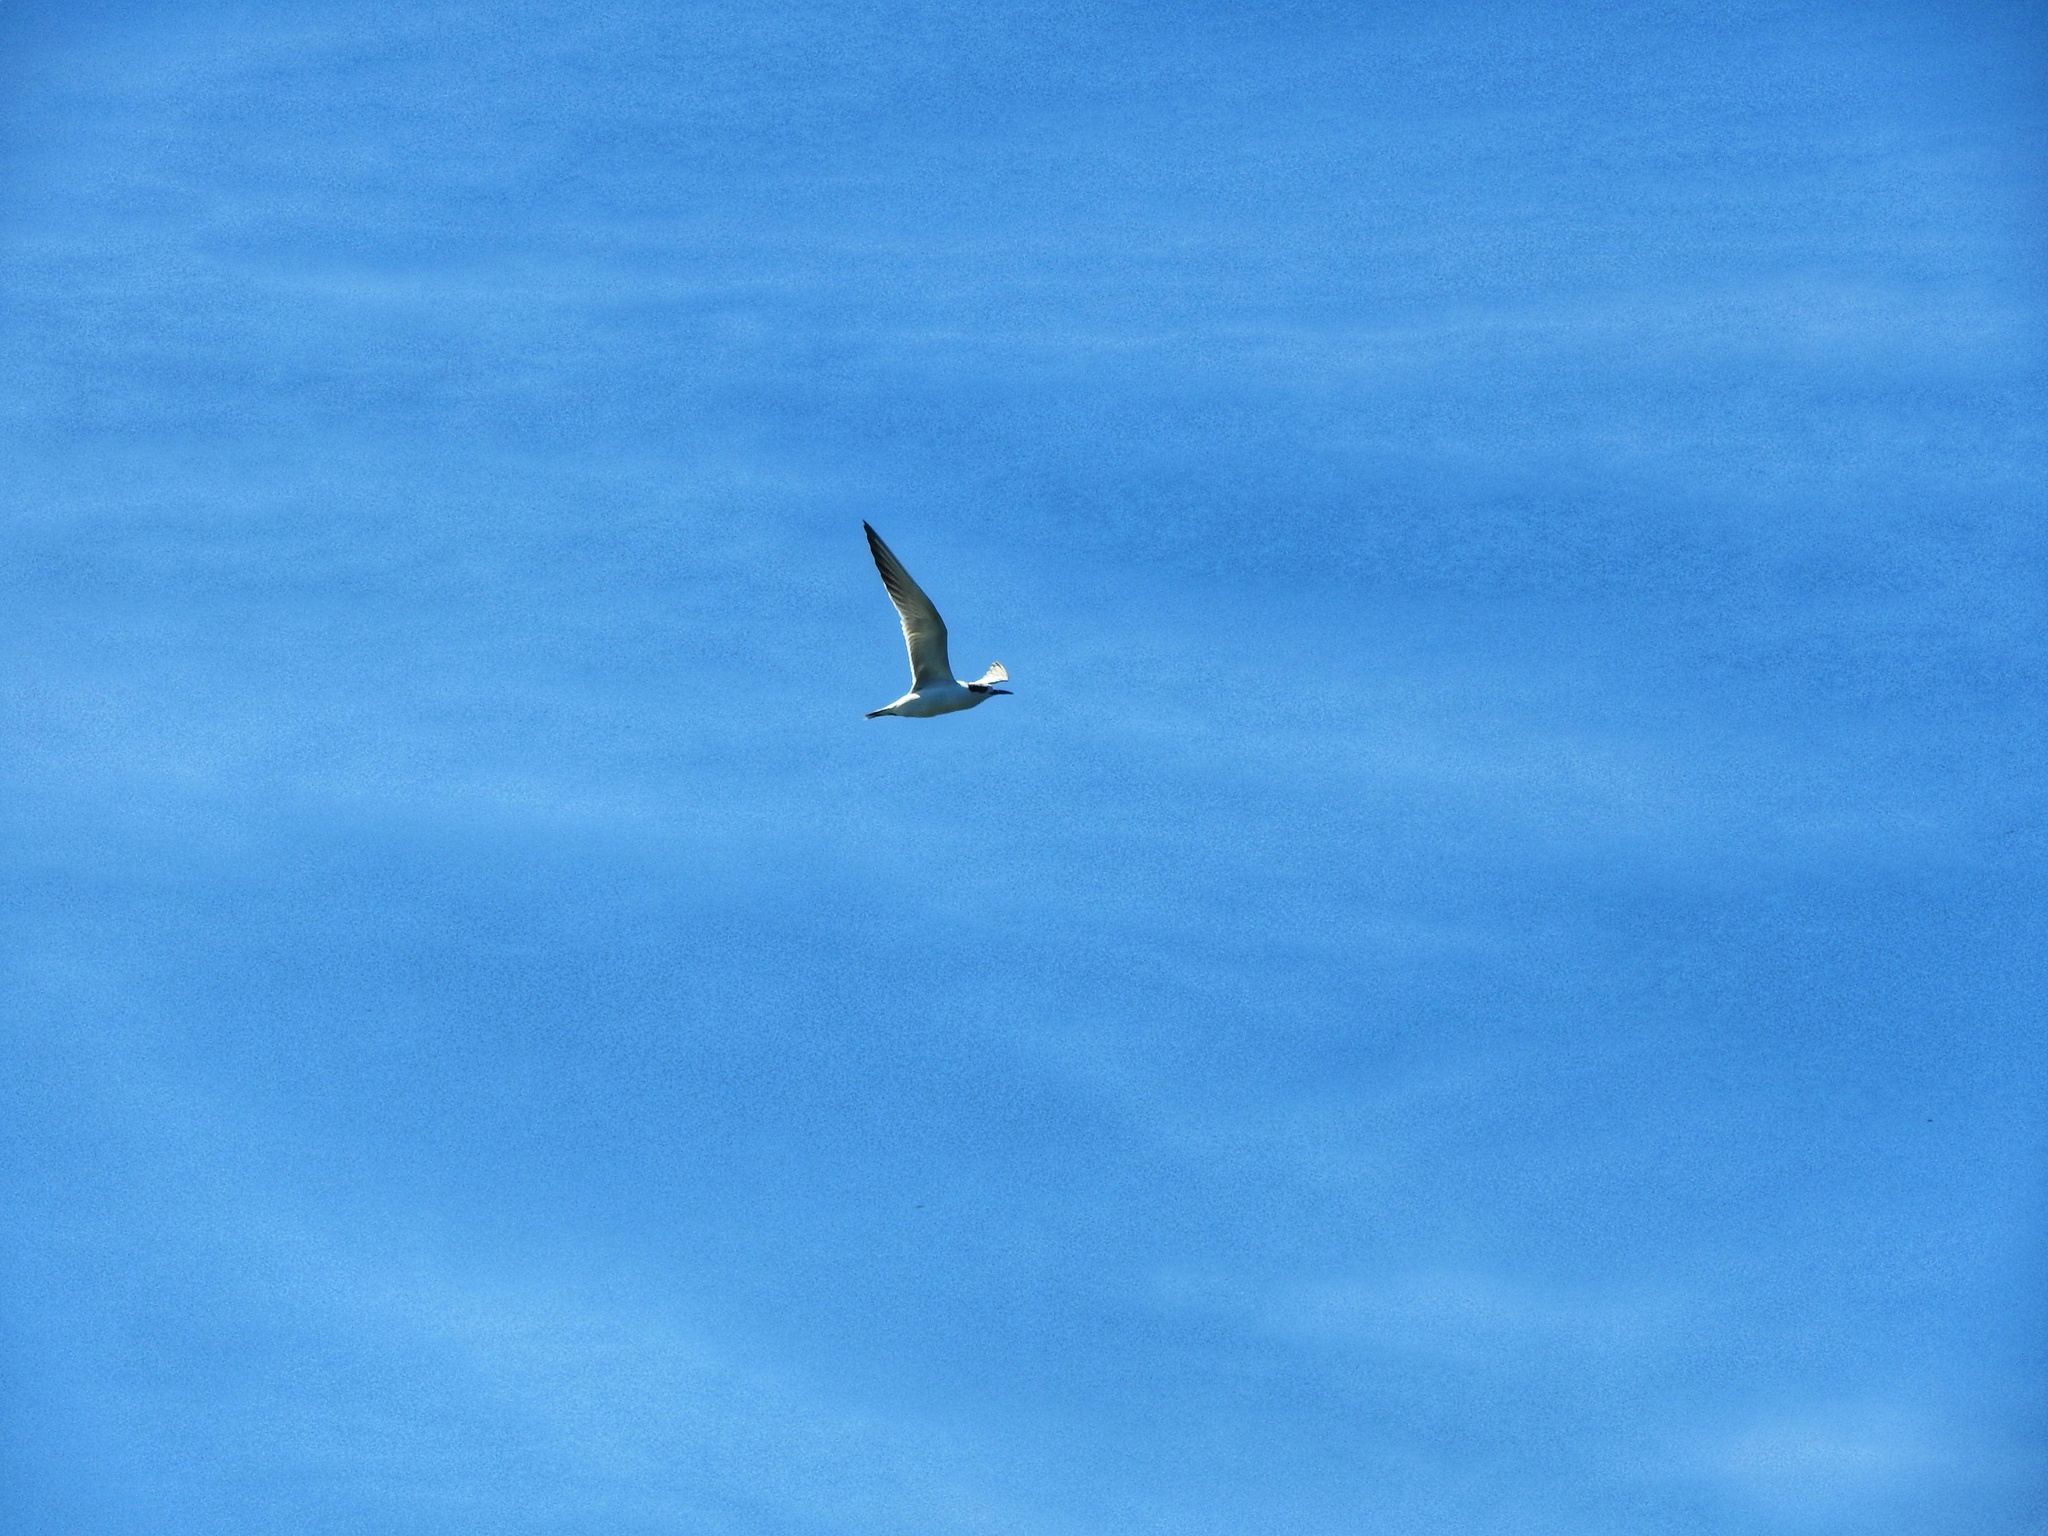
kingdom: Animalia
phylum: Chordata
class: Aves
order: Charadriiformes
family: Laridae
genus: Sterna
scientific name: Sterna forsteri
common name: Forster's tern
